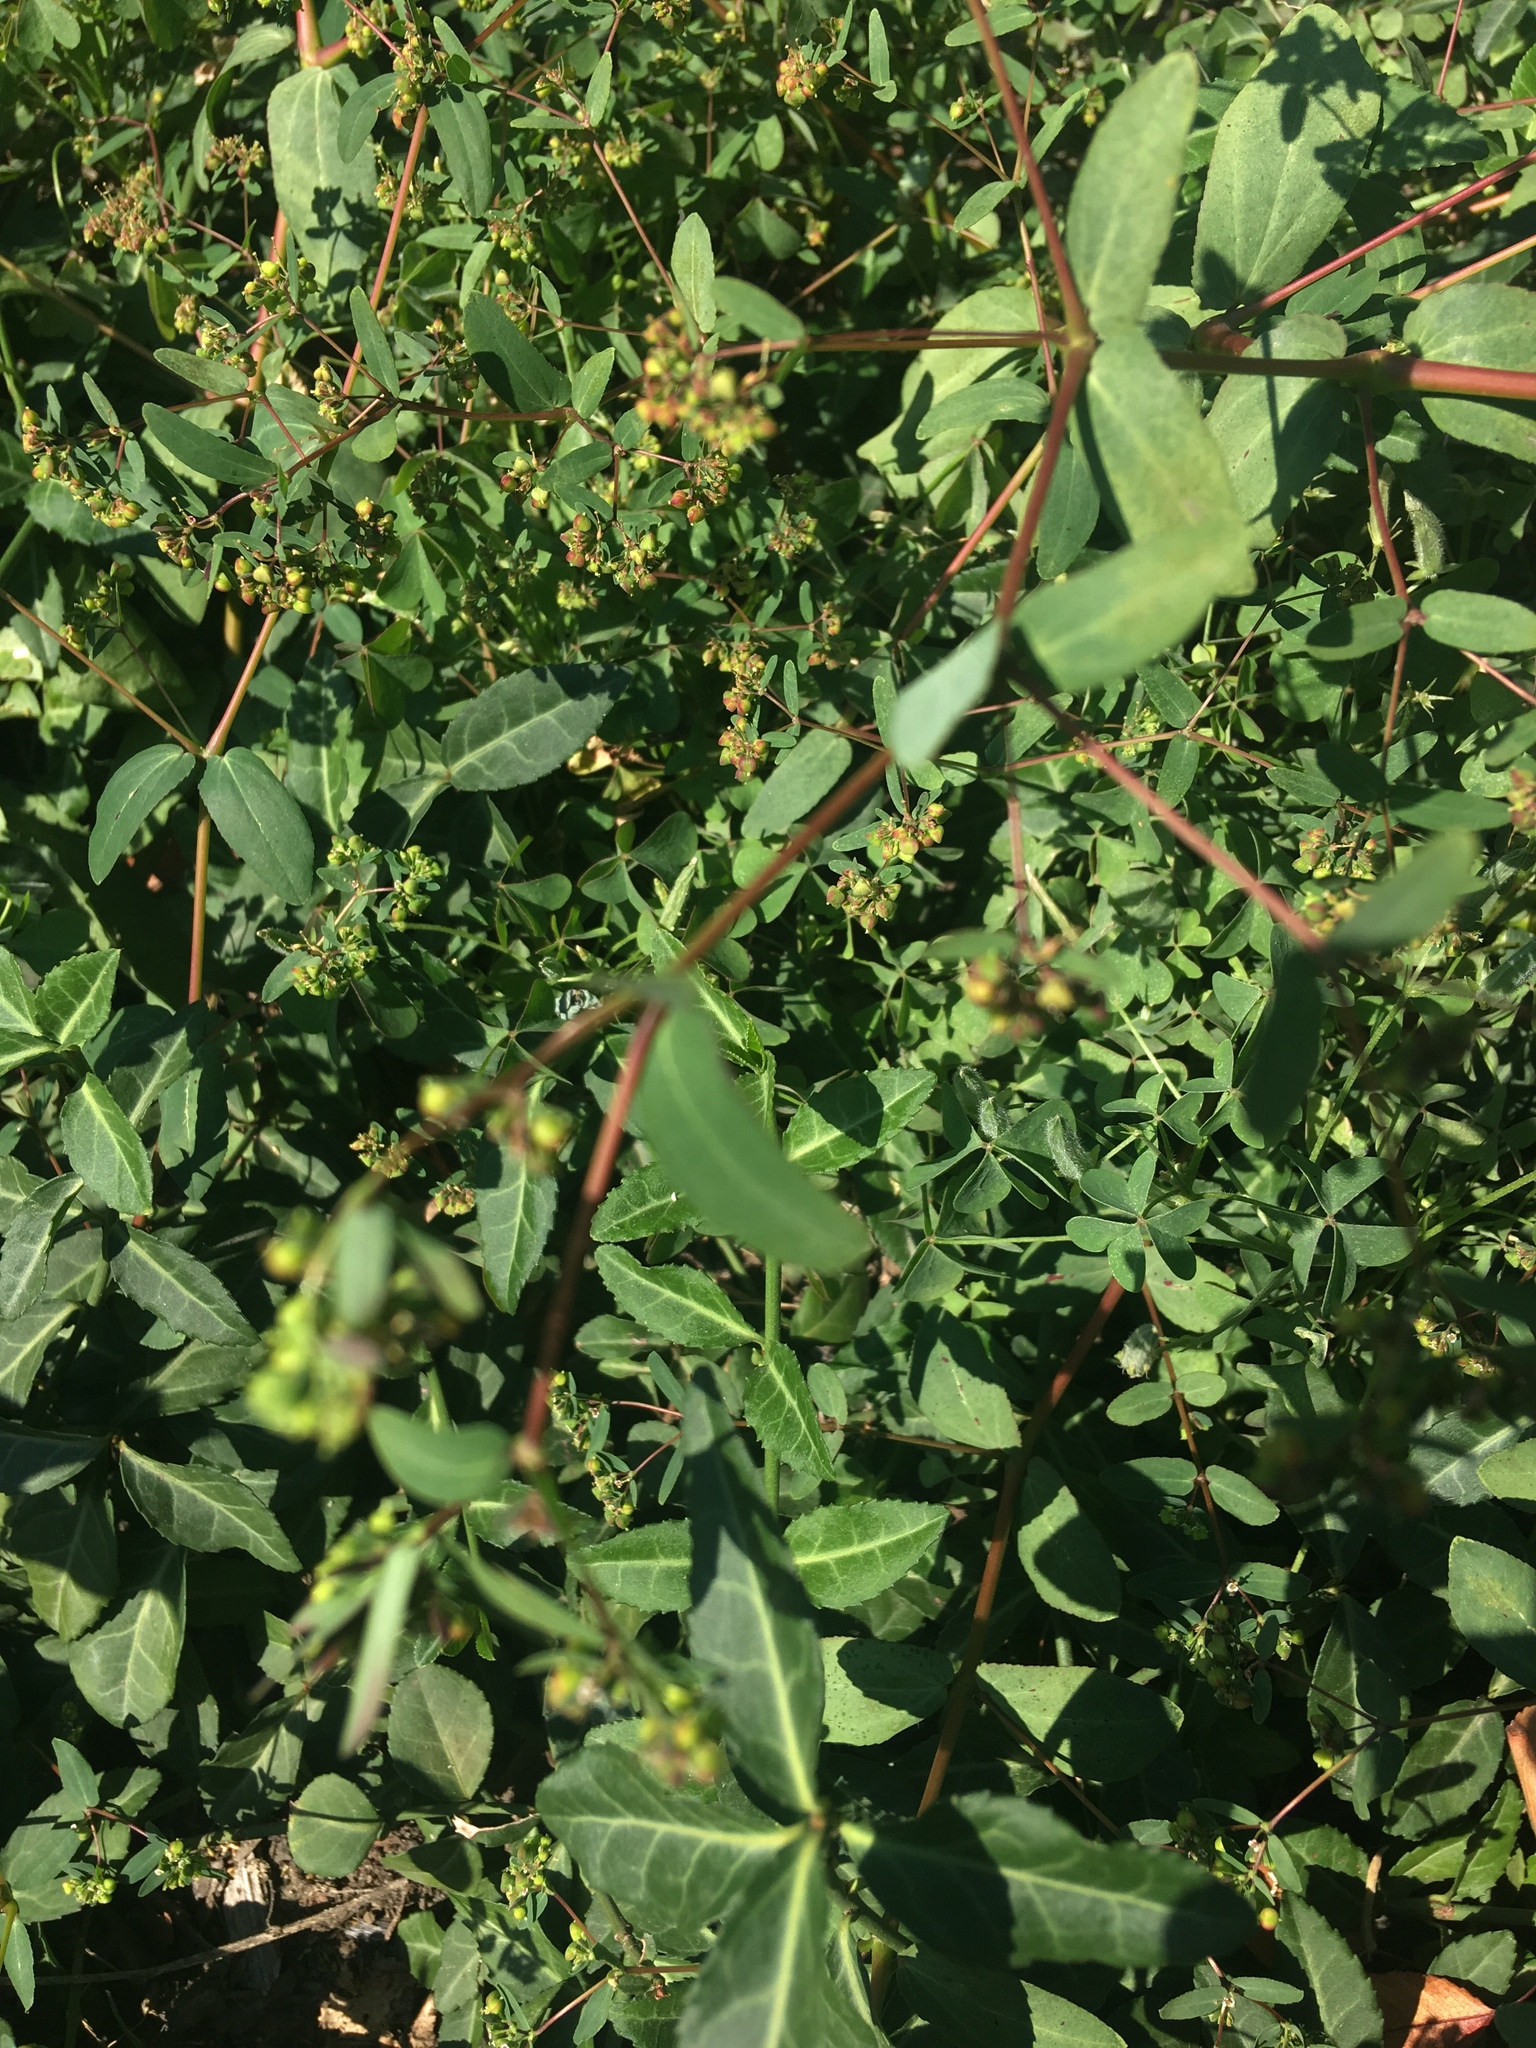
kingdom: Plantae
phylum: Tracheophyta
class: Magnoliopsida
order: Malpighiales
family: Euphorbiaceae
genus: Euphorbia
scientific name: Euphorbia hyssopifolia
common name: Hyssopleaf sandmat
